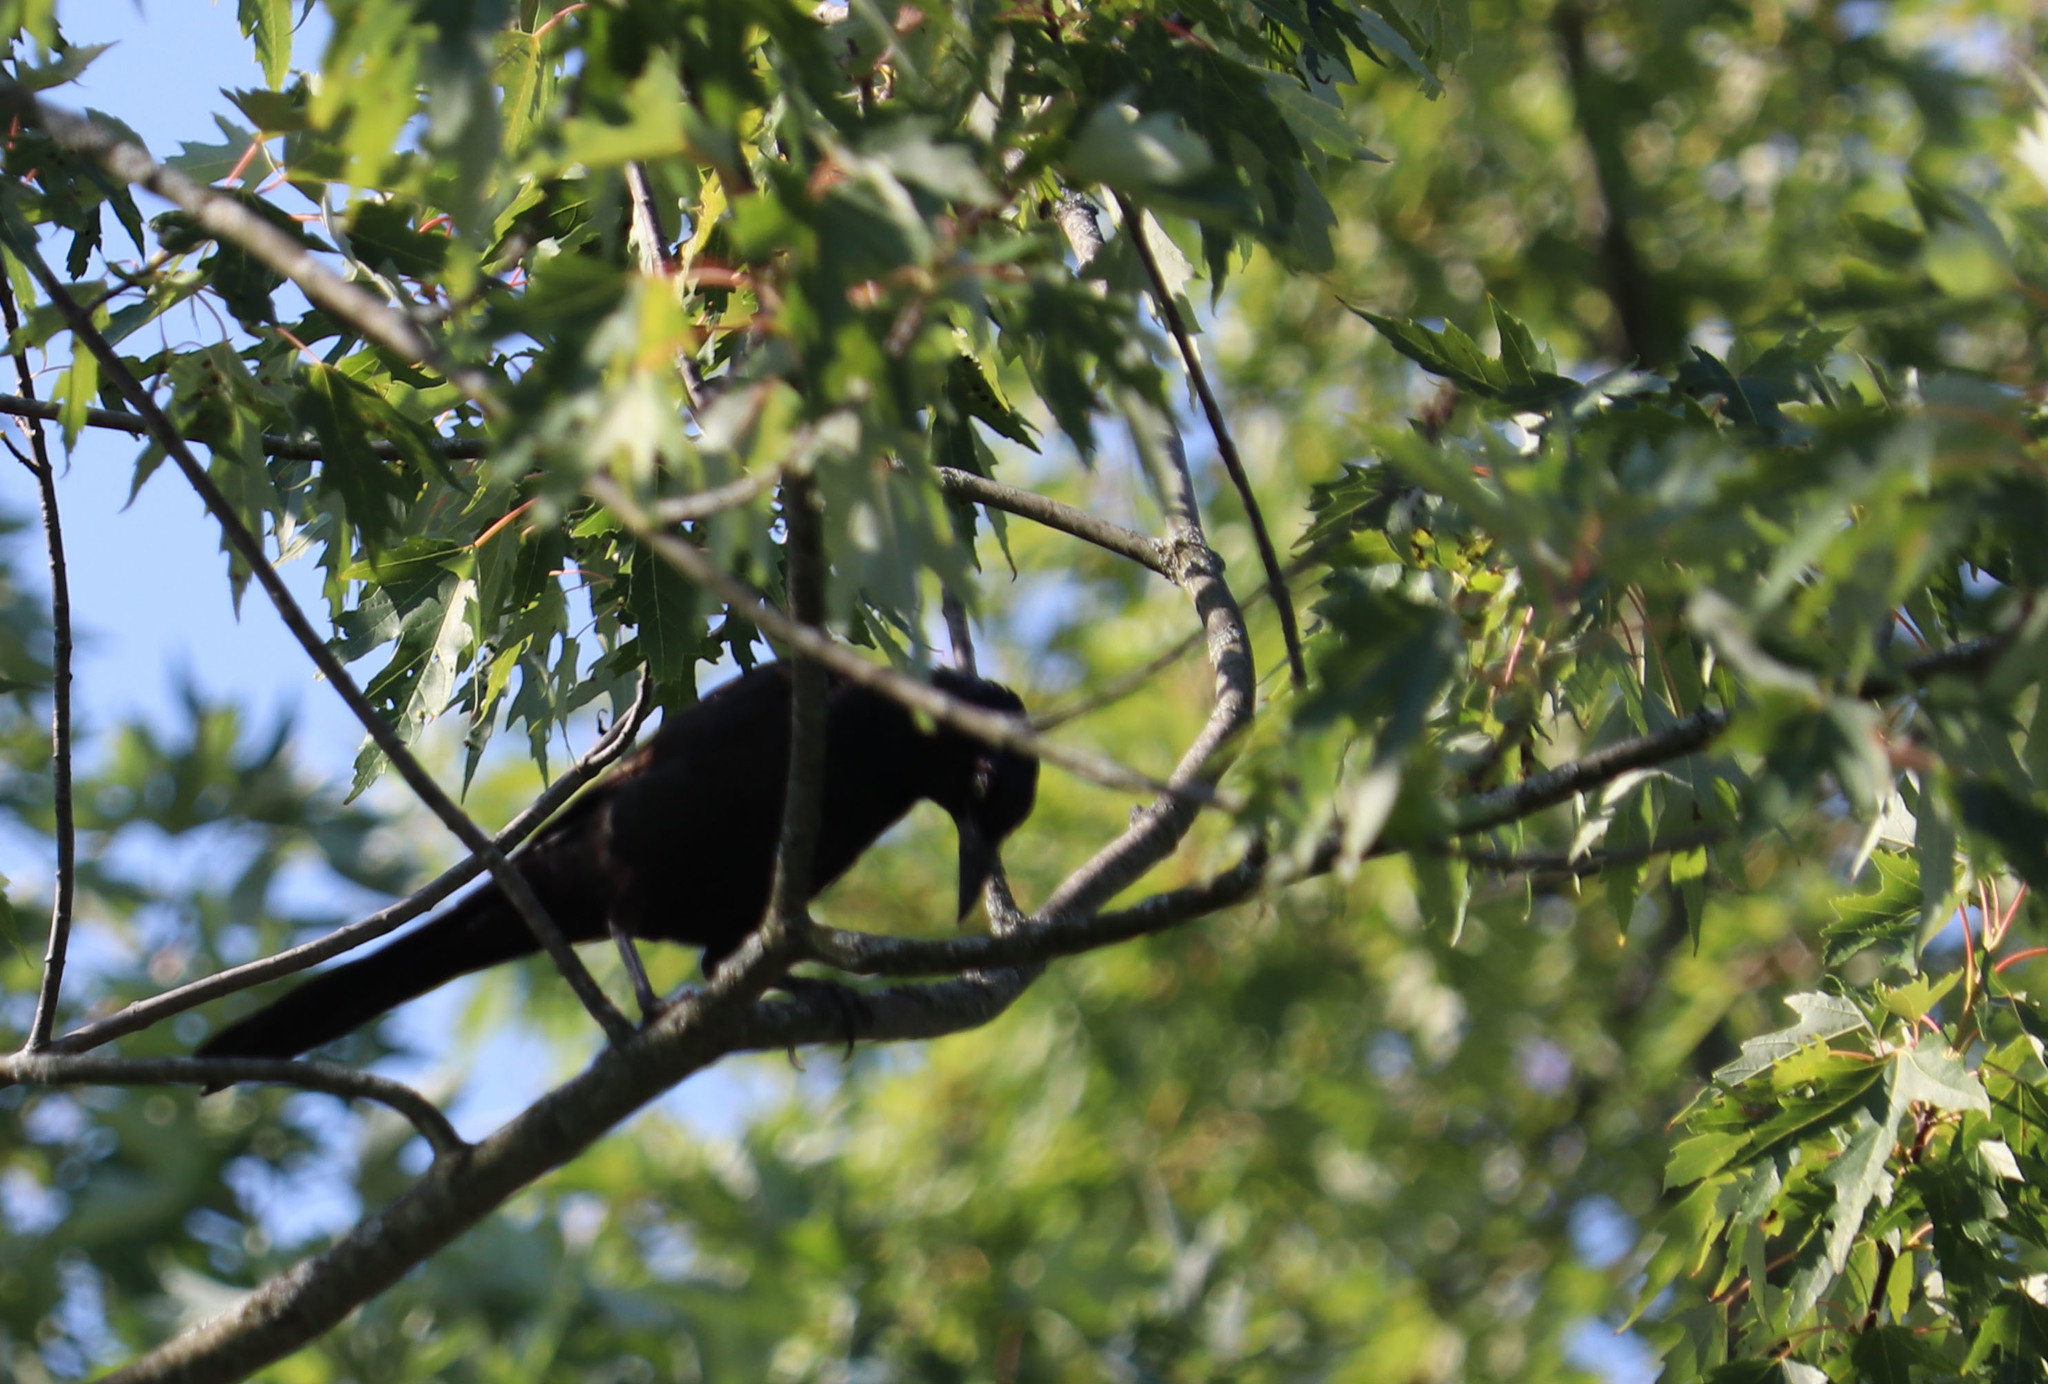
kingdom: Animalia
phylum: Chordata
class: Aves
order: Passeriformes
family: Icteridae
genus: Quiscalus
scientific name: Quiscalus quiscula
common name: Common grackle
